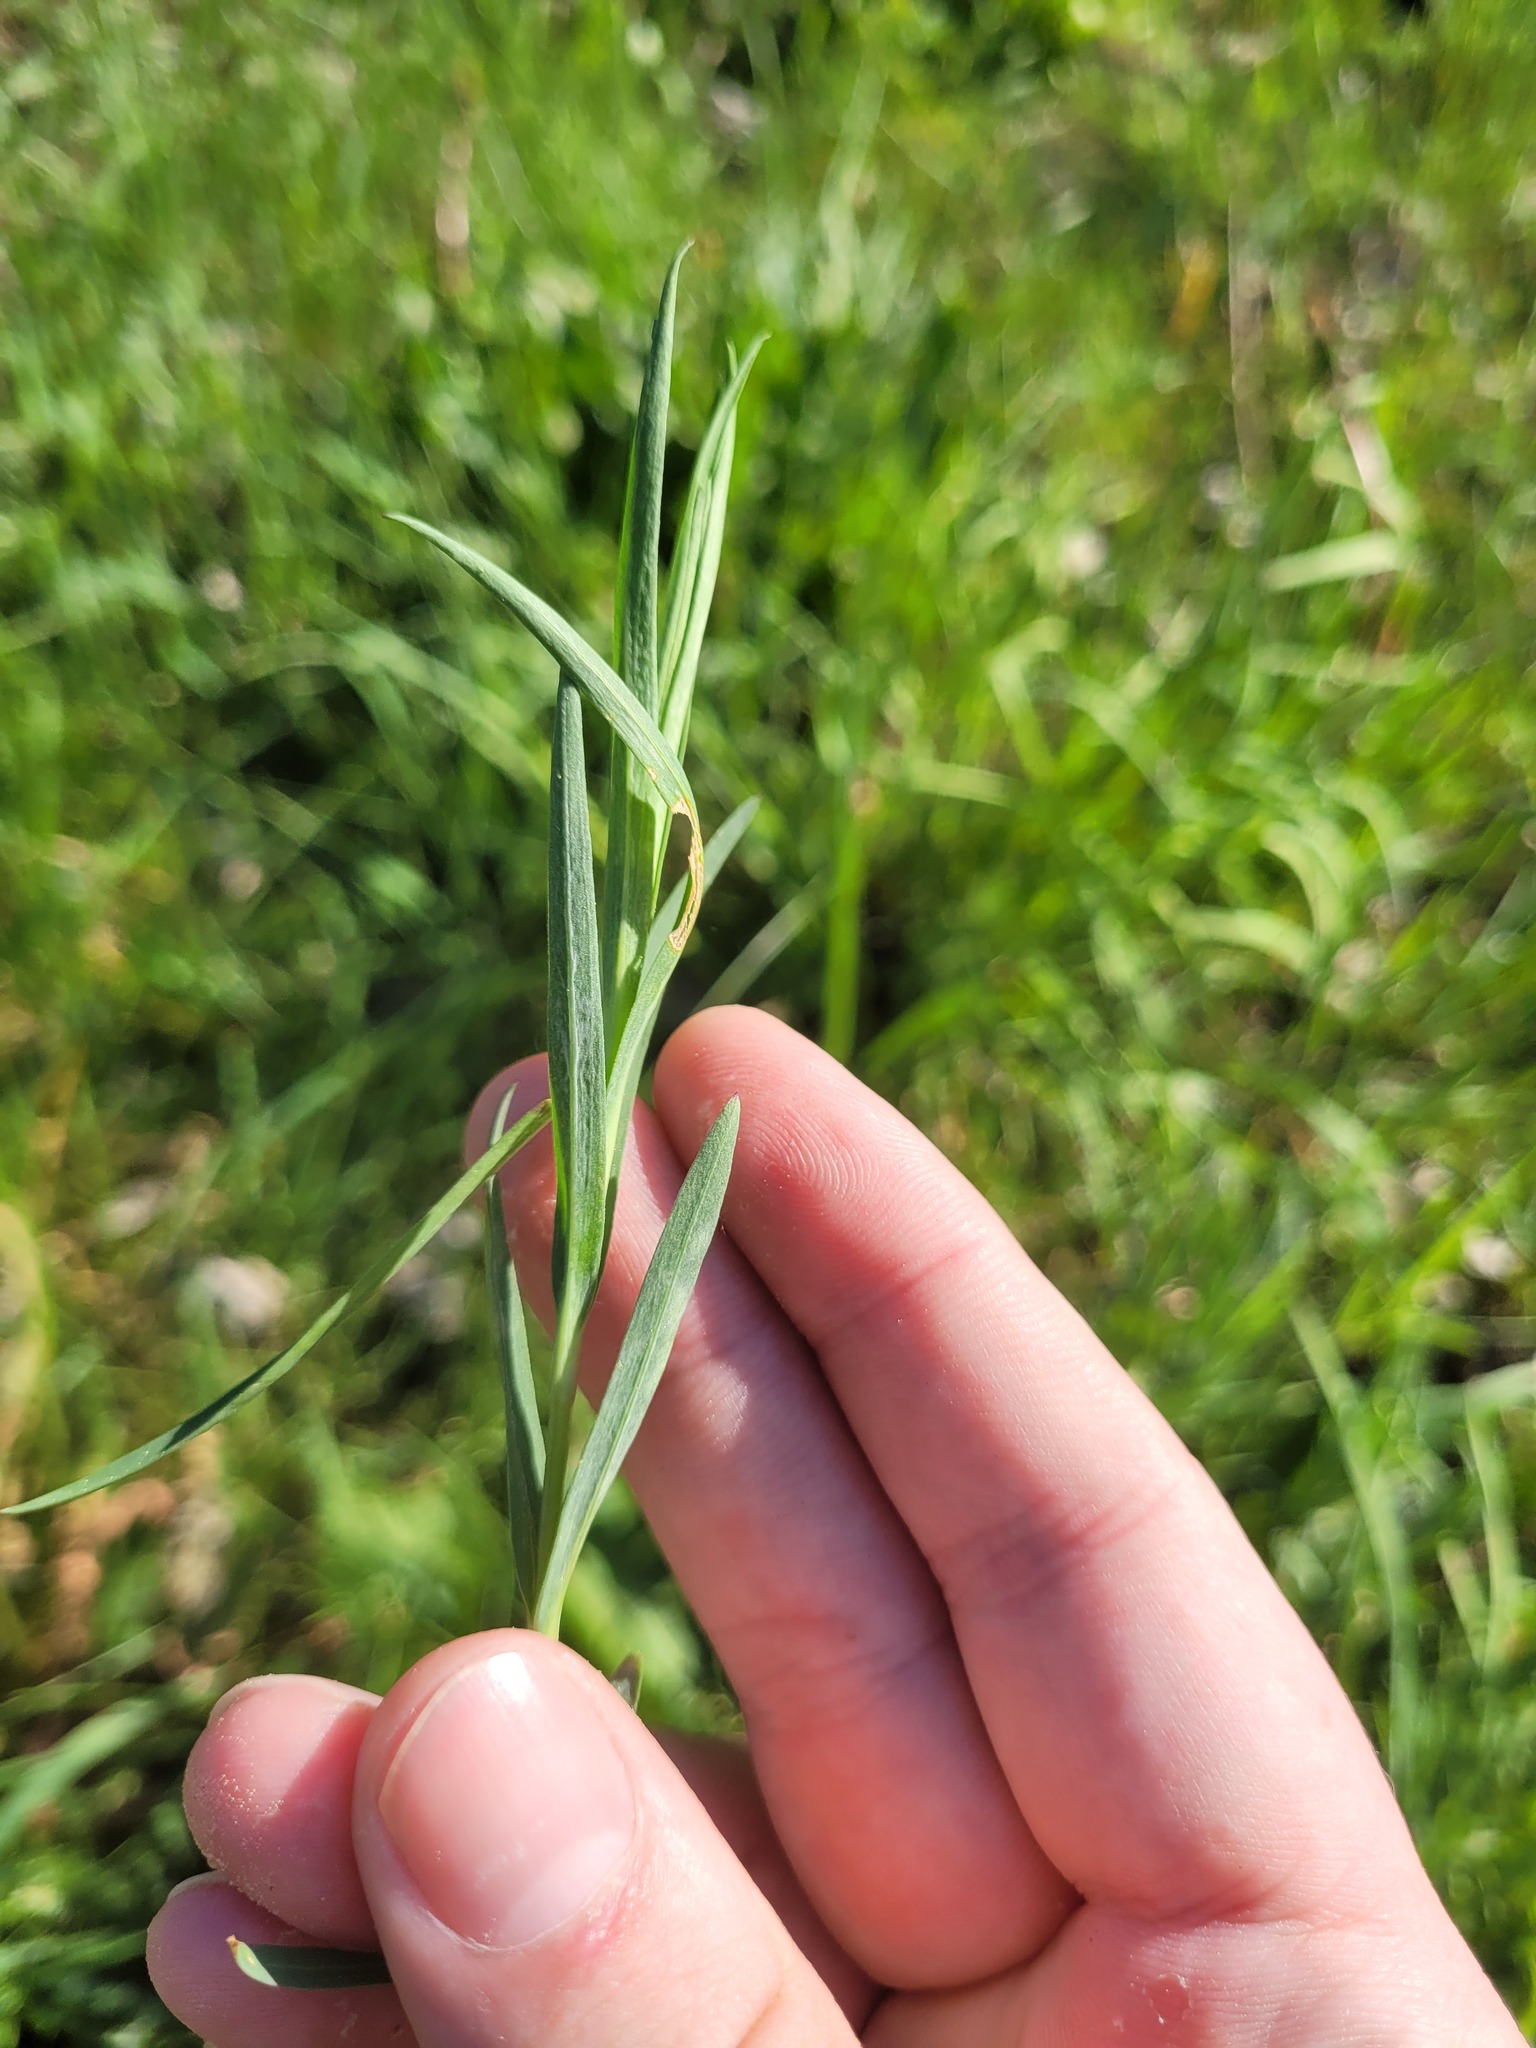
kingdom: Plantae
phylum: Tracheophyta
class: Magnoliopsida
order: Caryophyllales
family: Caryophyllaceae
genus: Dianthus
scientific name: Dianthus chinensis
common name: Rainbow pink
